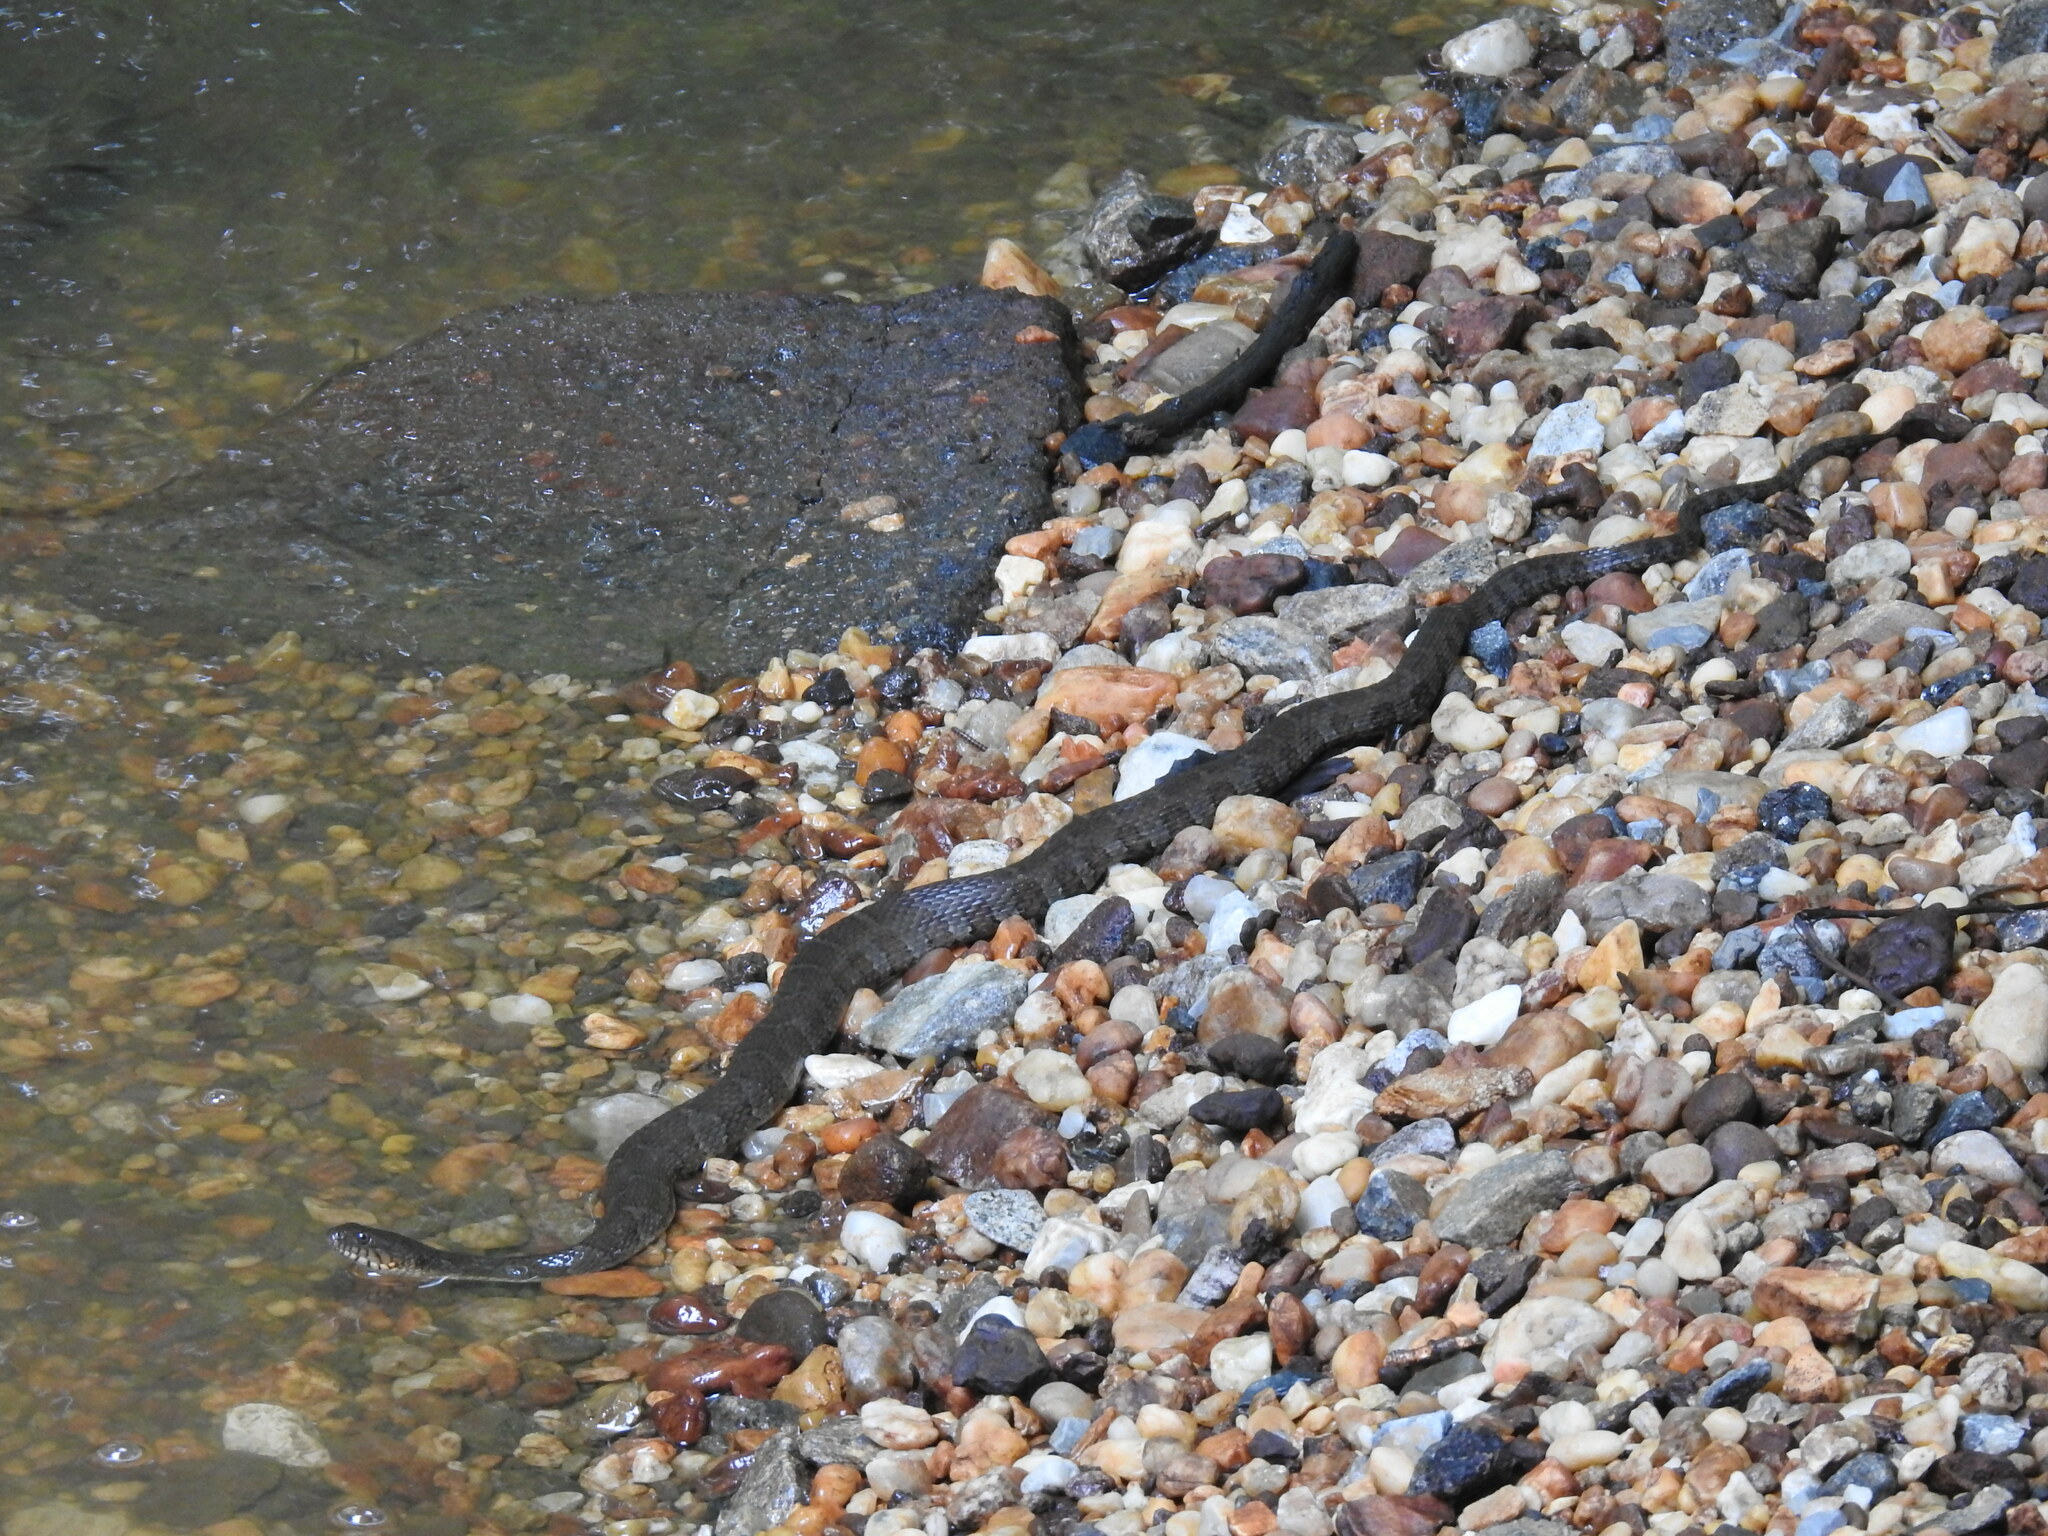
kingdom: Animalia
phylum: Chordata
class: Squamata
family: Colubridae
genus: Nerodia
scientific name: Nerodia sipedon
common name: Northern water snake
